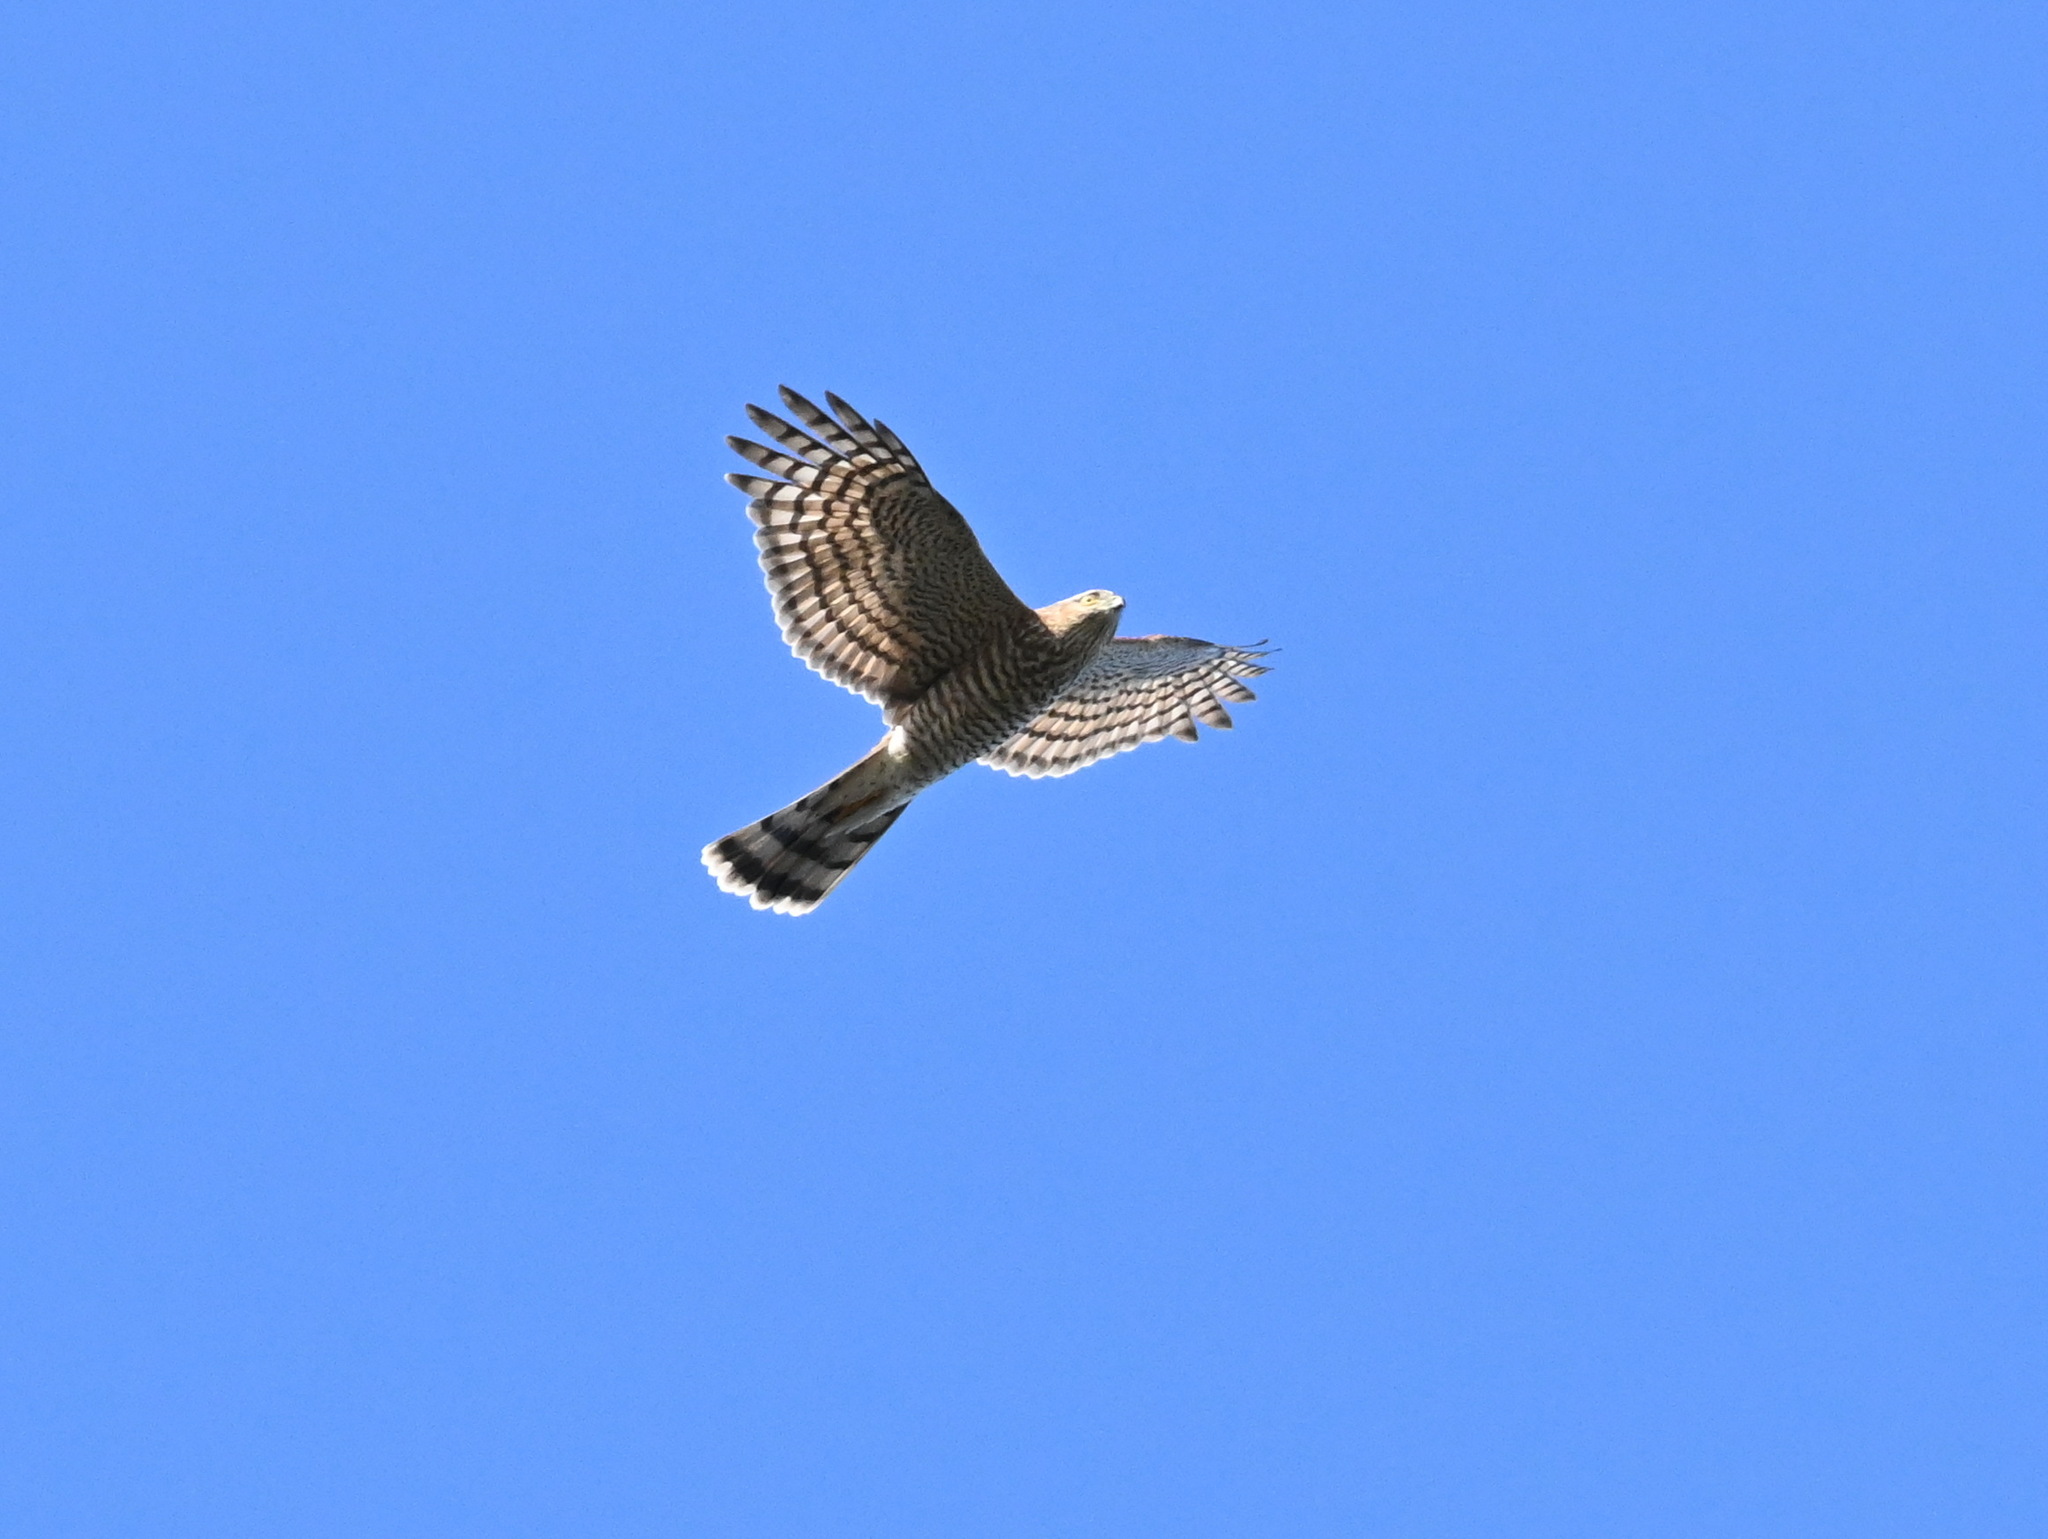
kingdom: Animalia
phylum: Chordata
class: Aves
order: Accipitriformes
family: Accipitridae
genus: Accipiter
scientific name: Accipiter nisus
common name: Eurasian sparrowhawk
